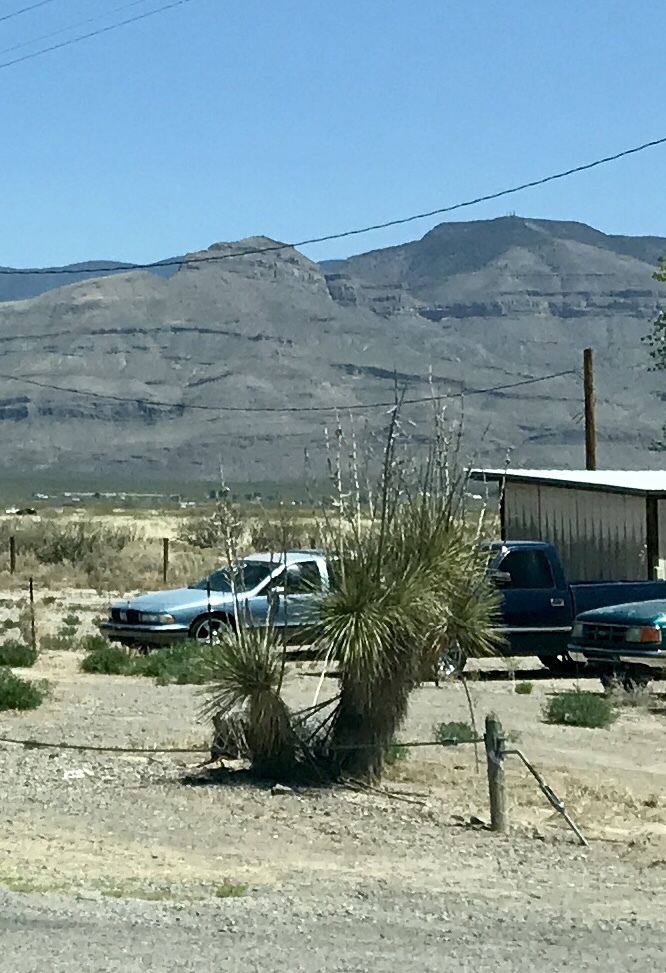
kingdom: Plantae
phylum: Tracheophyta
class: Liliopsida
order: Asparagales
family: Asparagaceae
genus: Yucca
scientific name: Yucca elata
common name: Palmella
